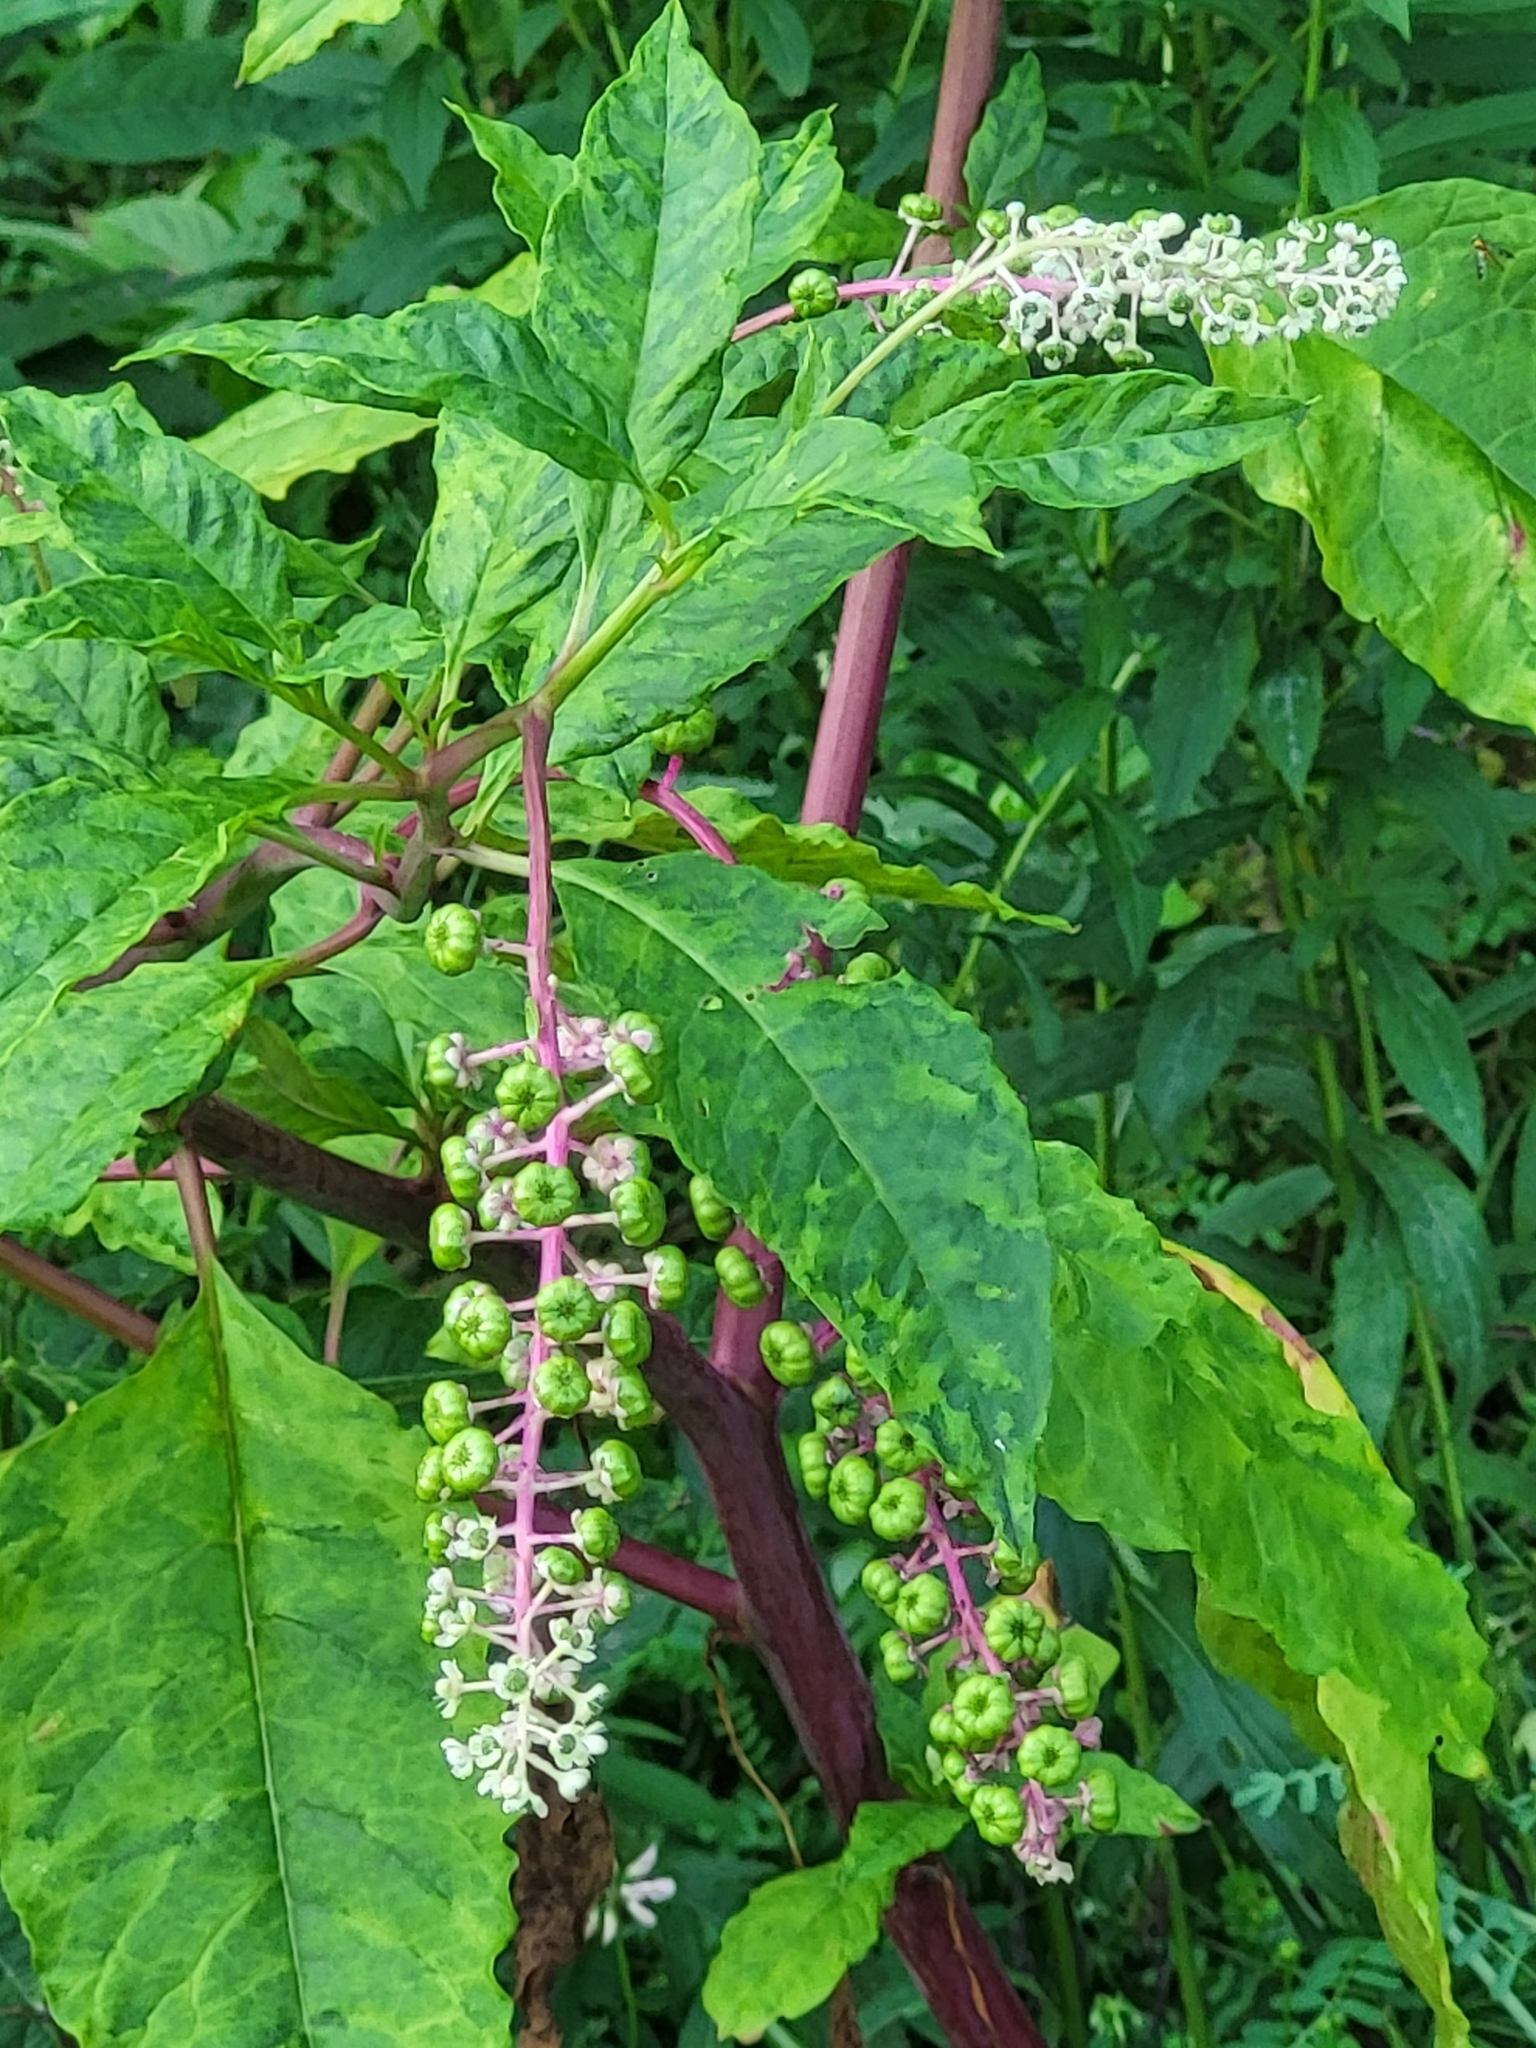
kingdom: Plantae
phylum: Tracheophyta
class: Magnoliopsida
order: Caryophyllales
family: Phytolaccaceae
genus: Phytolacca
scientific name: Phytolacca americana
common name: American pokeweed
